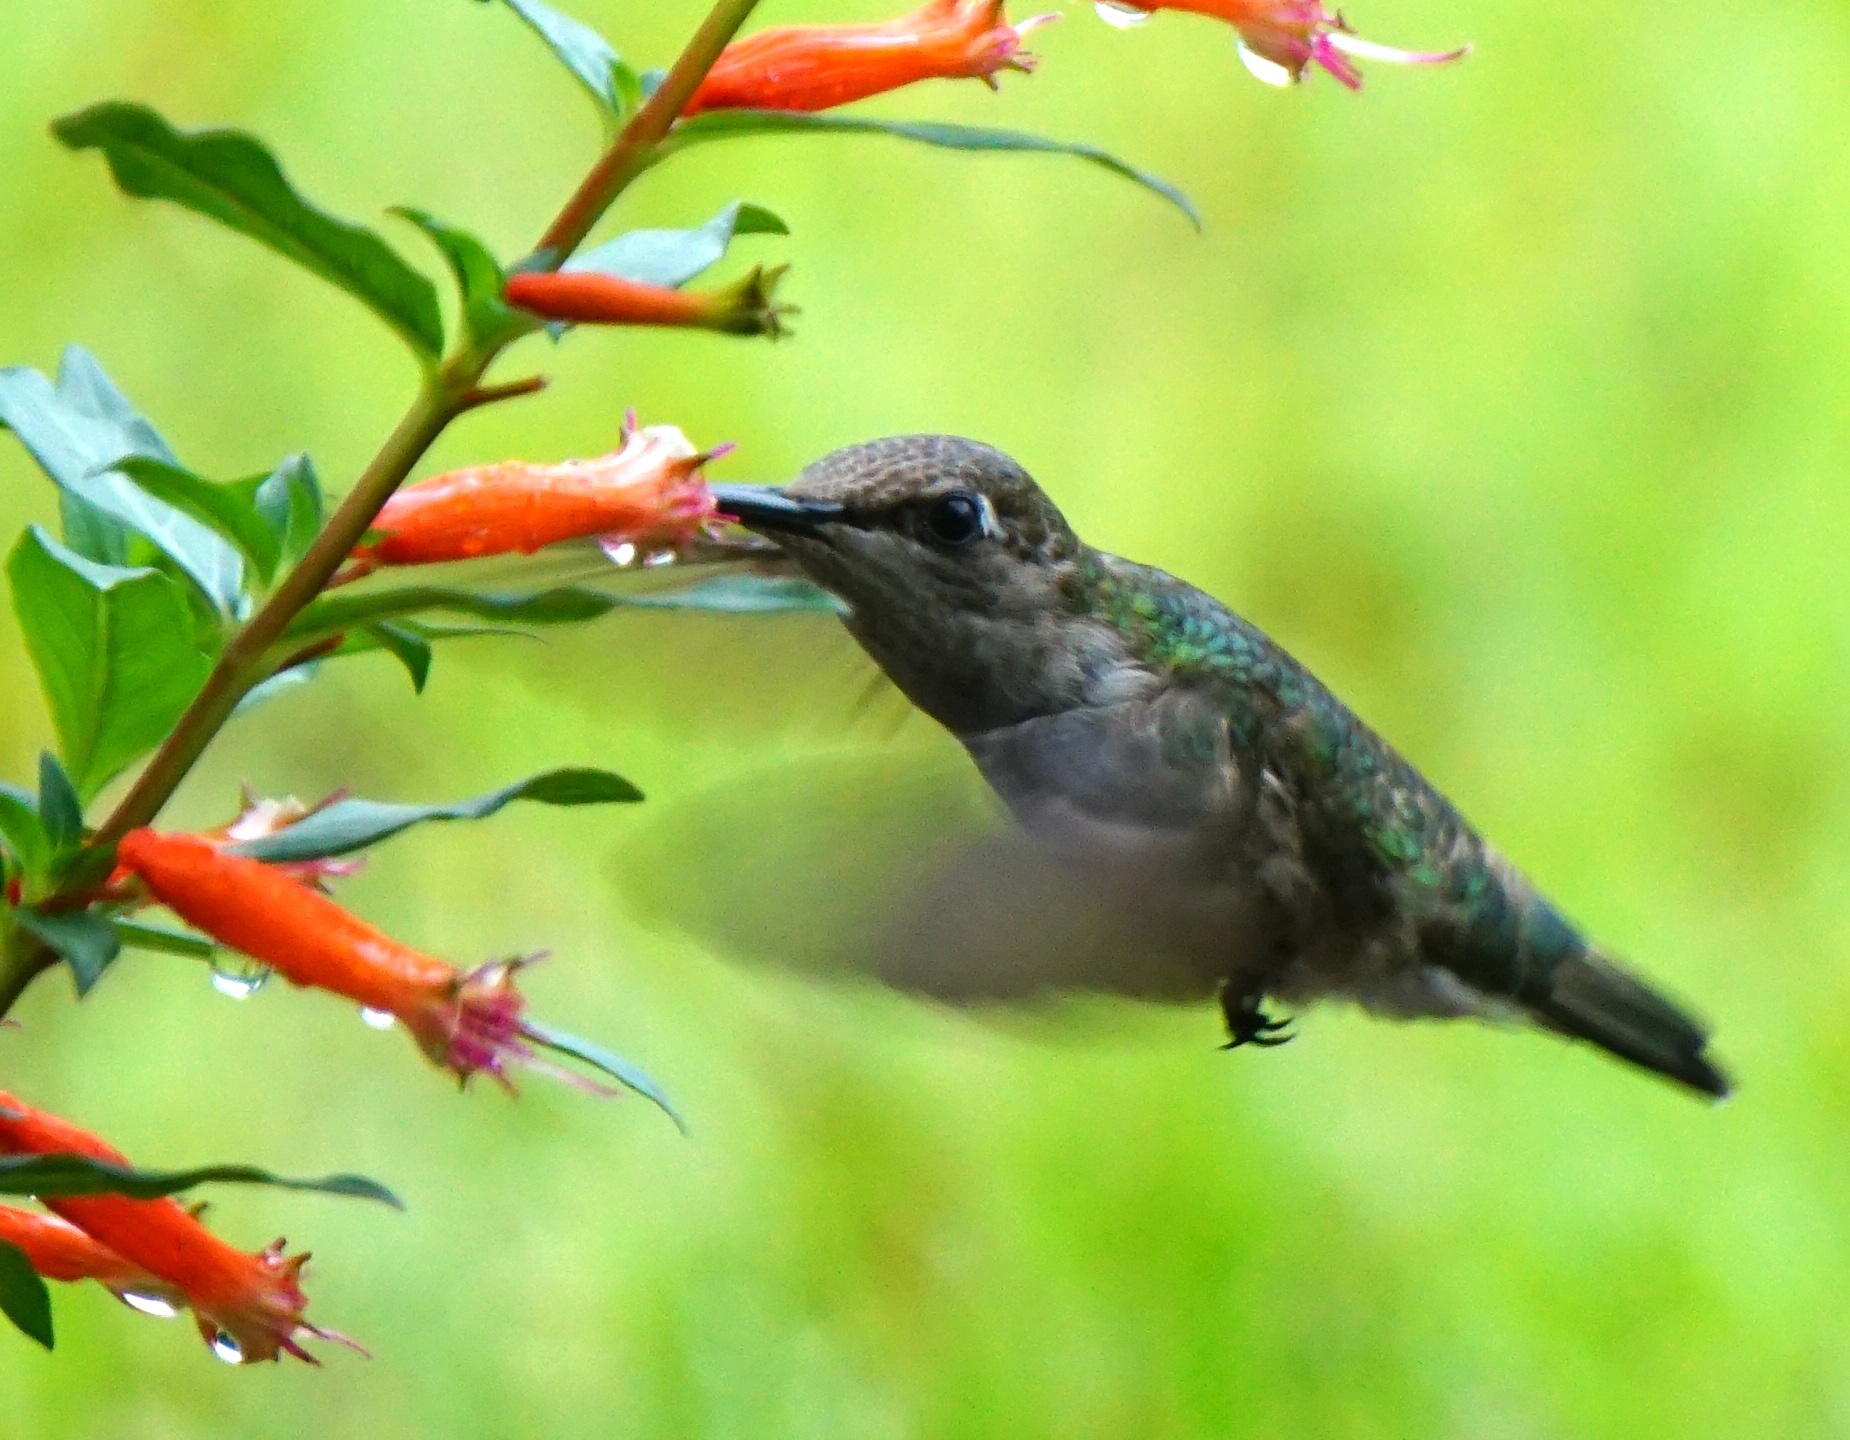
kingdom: Animalia
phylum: Chordata
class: Aves
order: Apodiformes
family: Trochilidae
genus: Archilochus
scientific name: Archilochus colubris
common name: Ruby-throated hummingbird
